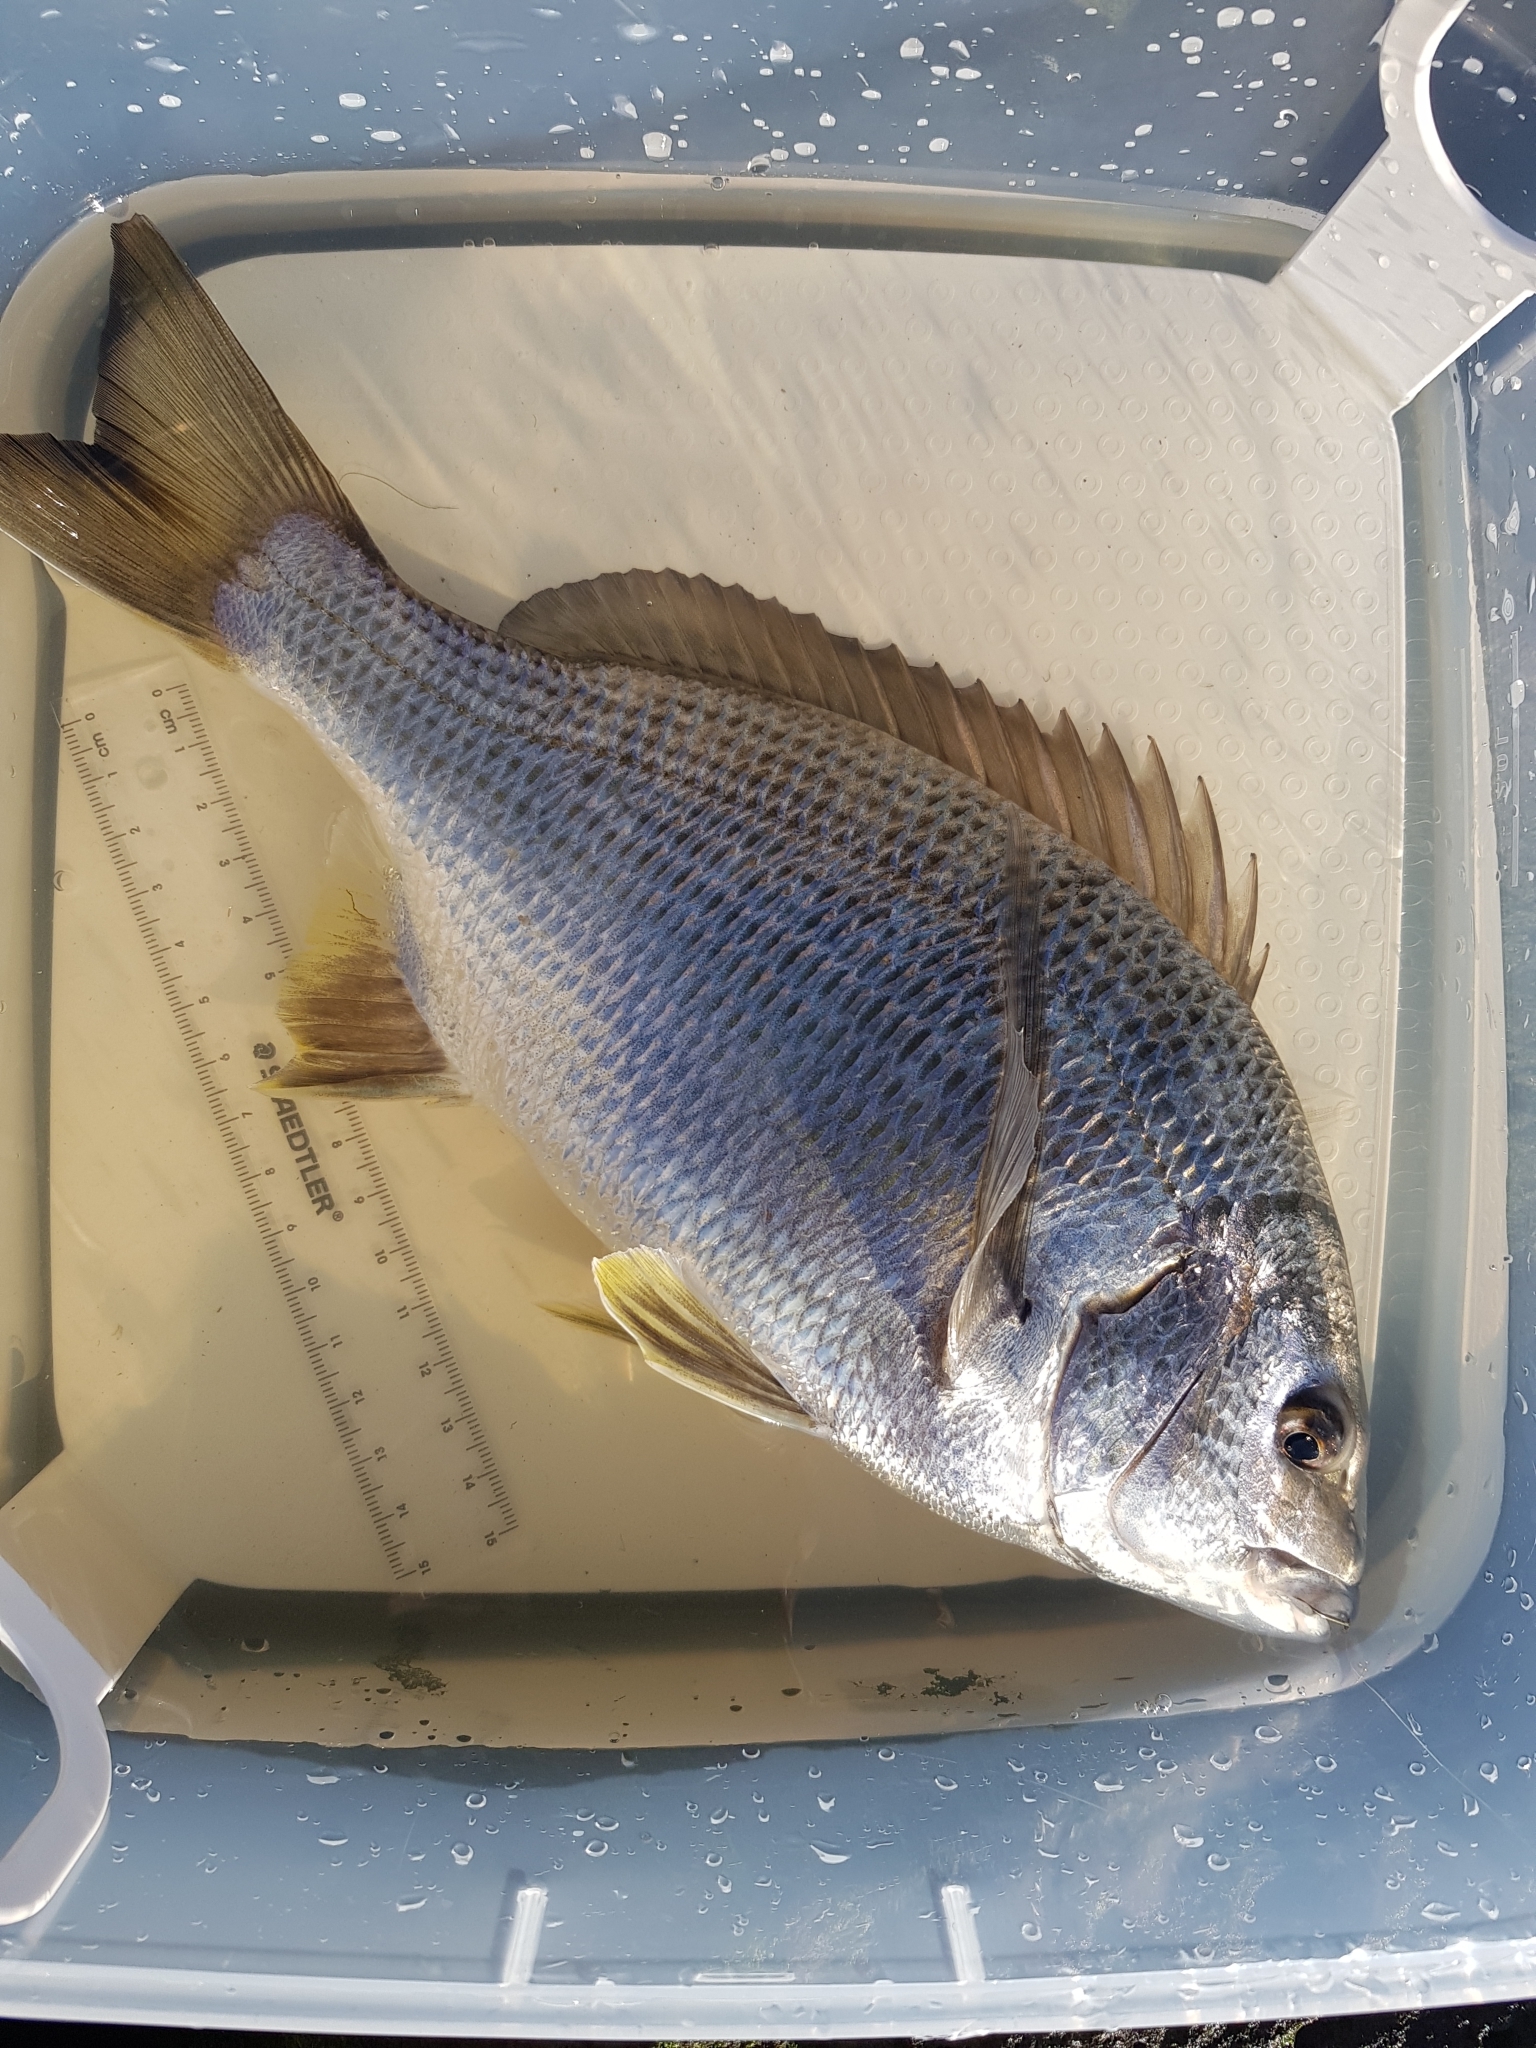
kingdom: Animalia
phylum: Chordata
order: Perciformes
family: Sparidae
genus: Acanthopagrus
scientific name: Acanthopagrus butcheri
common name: Black bream
